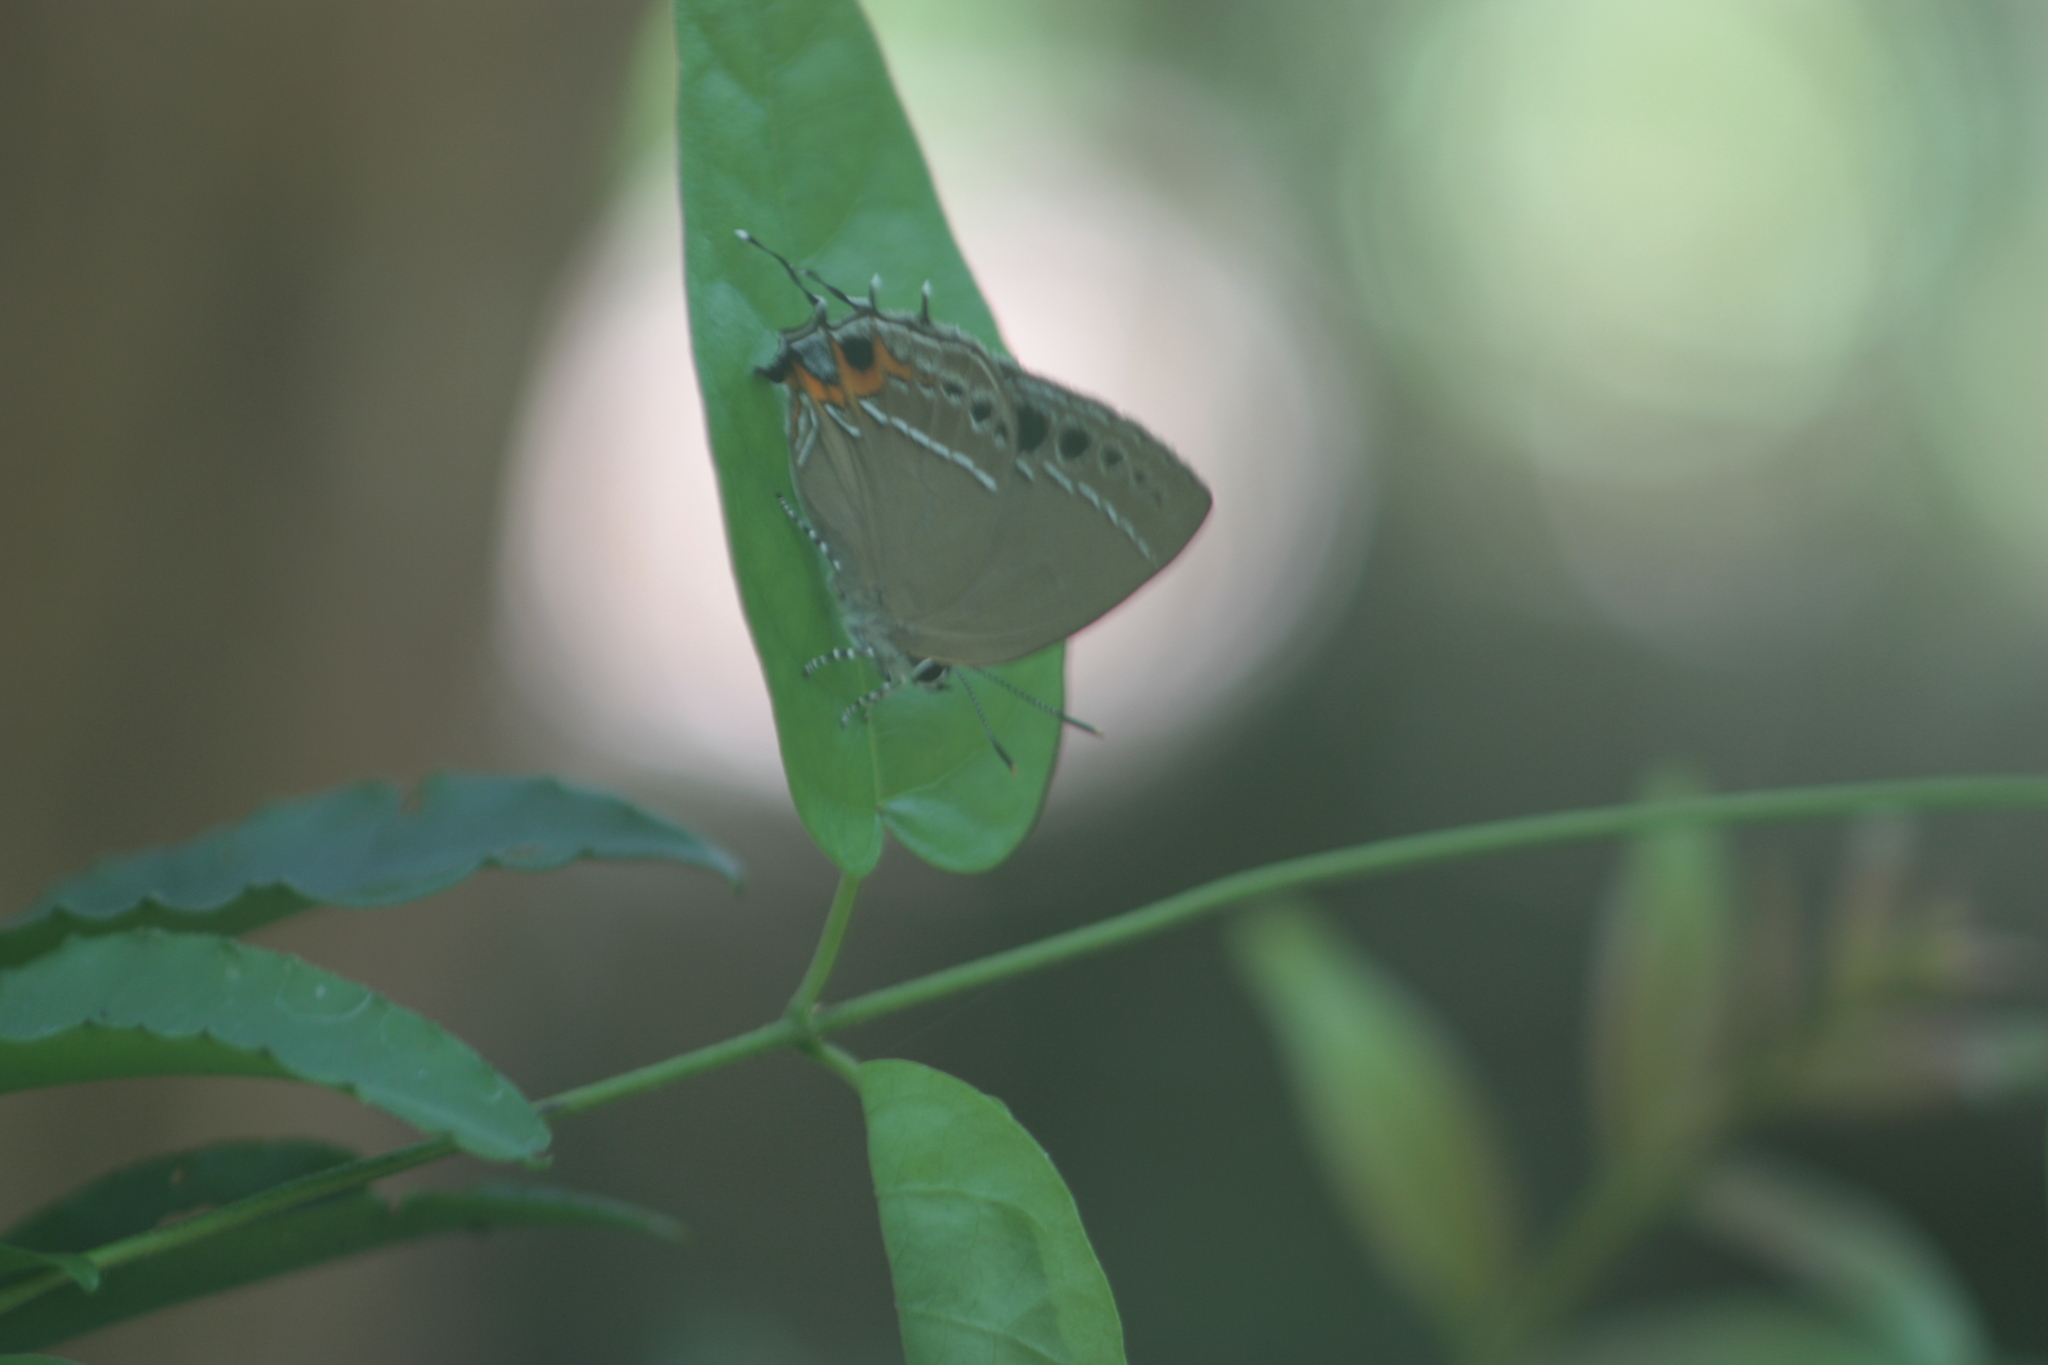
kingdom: Animalia
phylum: Arthropoda
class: Insecta
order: Lepidoptera
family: Lycaenidae
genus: Thecla
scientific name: Thecla formosana
